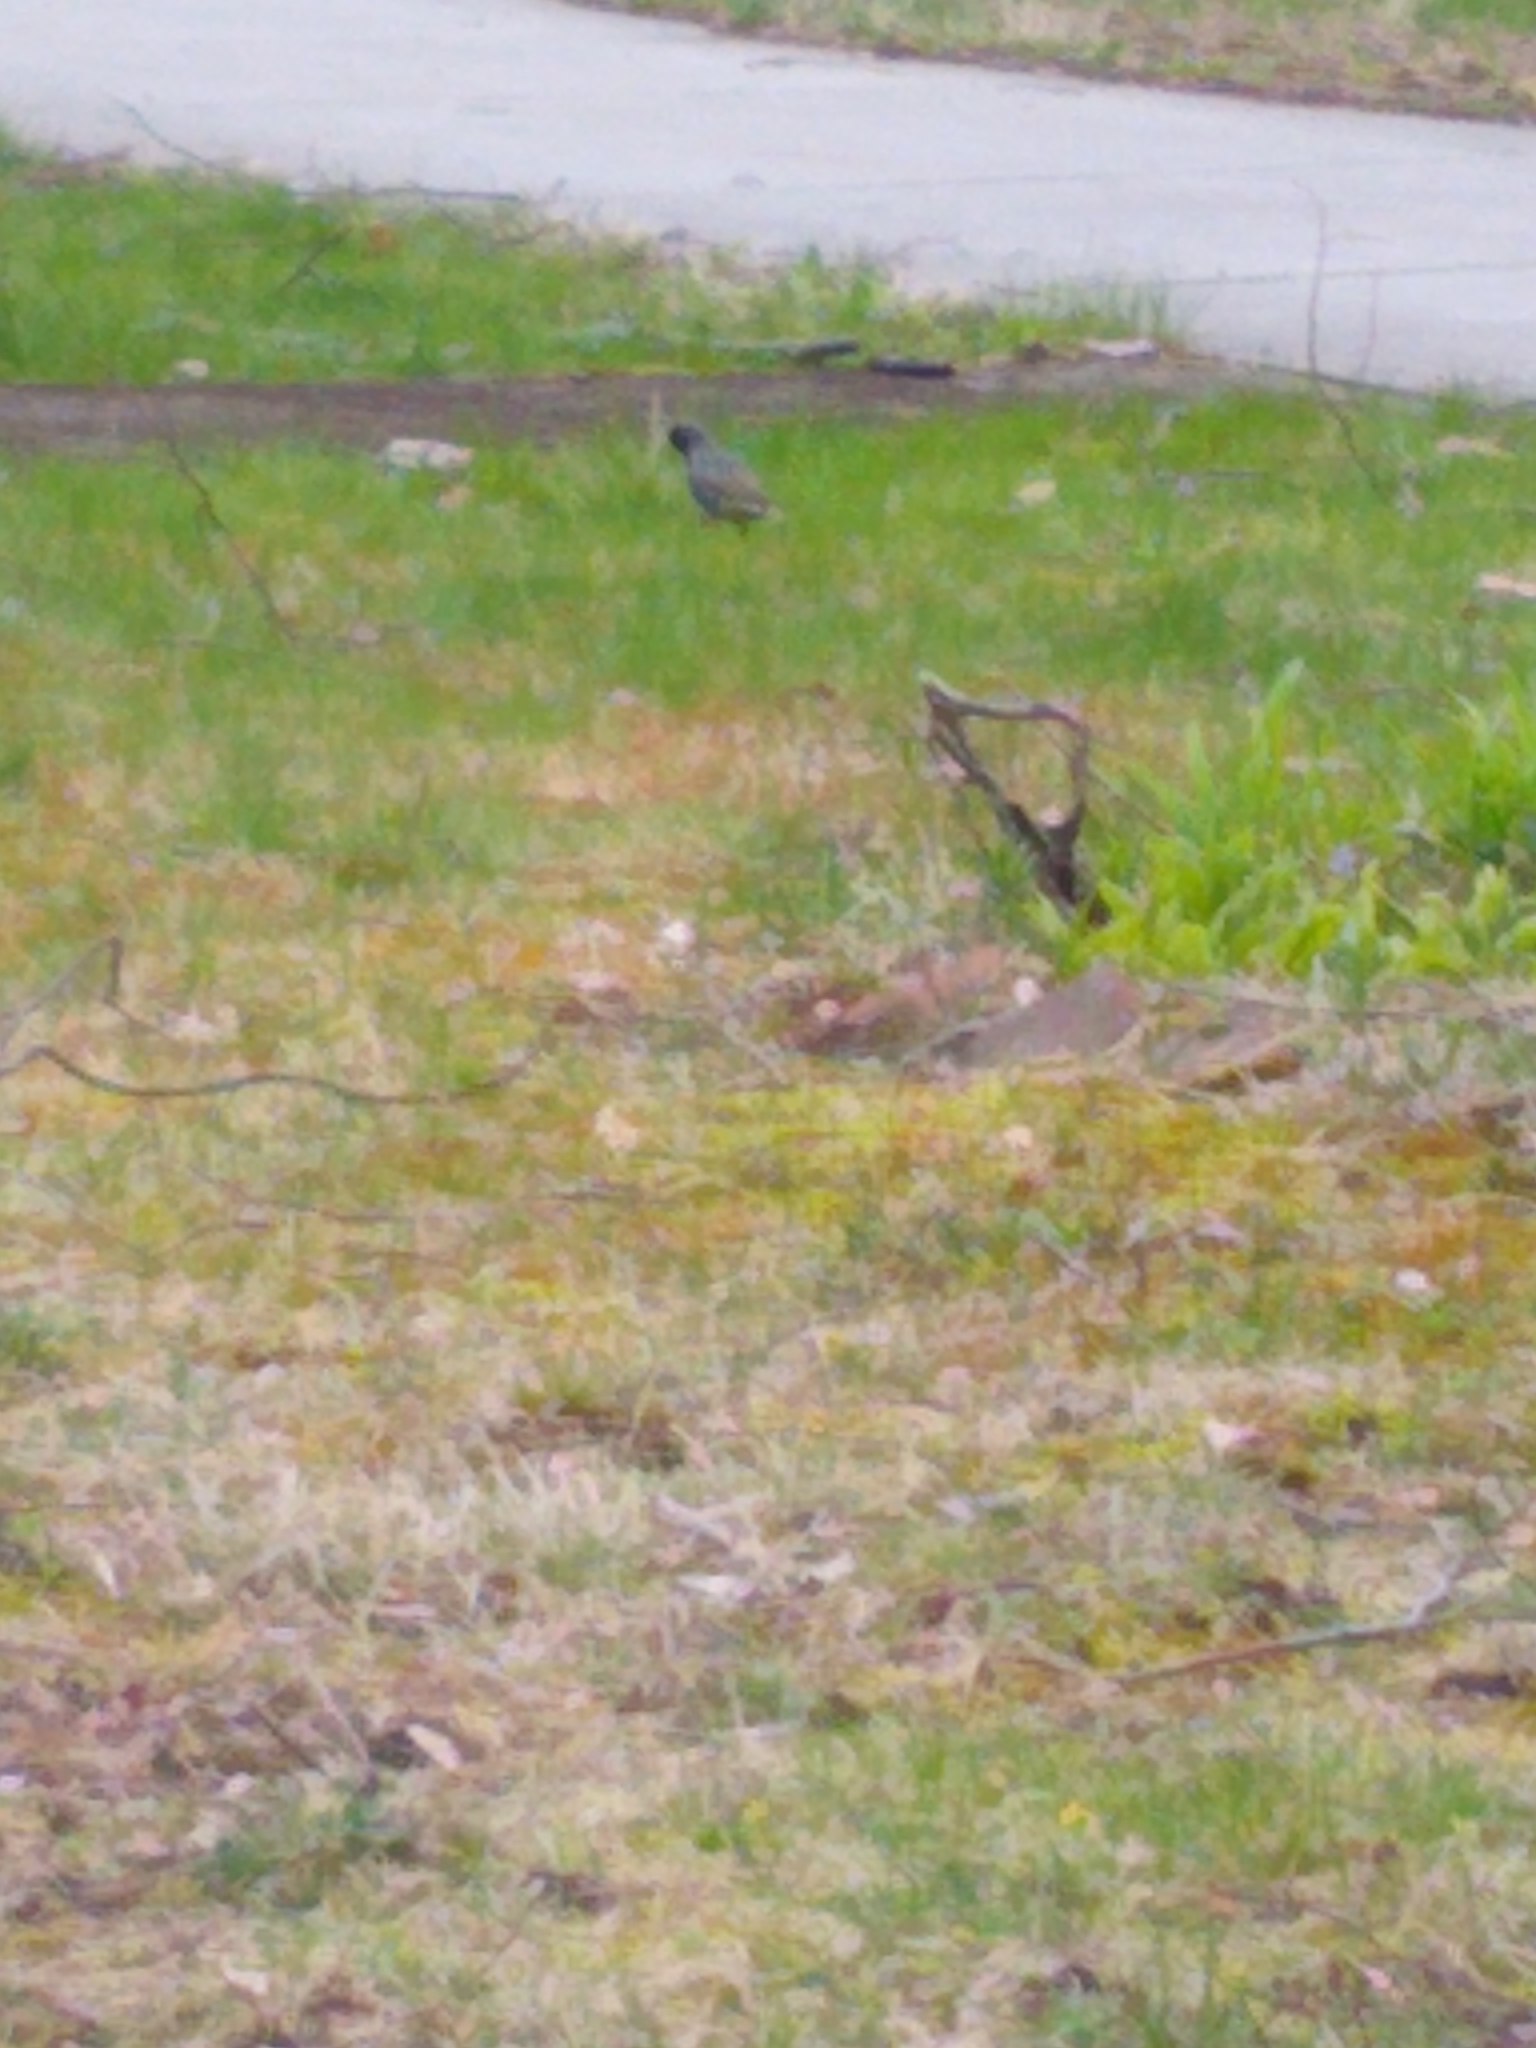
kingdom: Animalia
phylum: Chordata
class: Aves
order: Passeriformes
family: Sturnidae
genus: Sturnus
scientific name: Sturnus vulgaris
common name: Common starling
